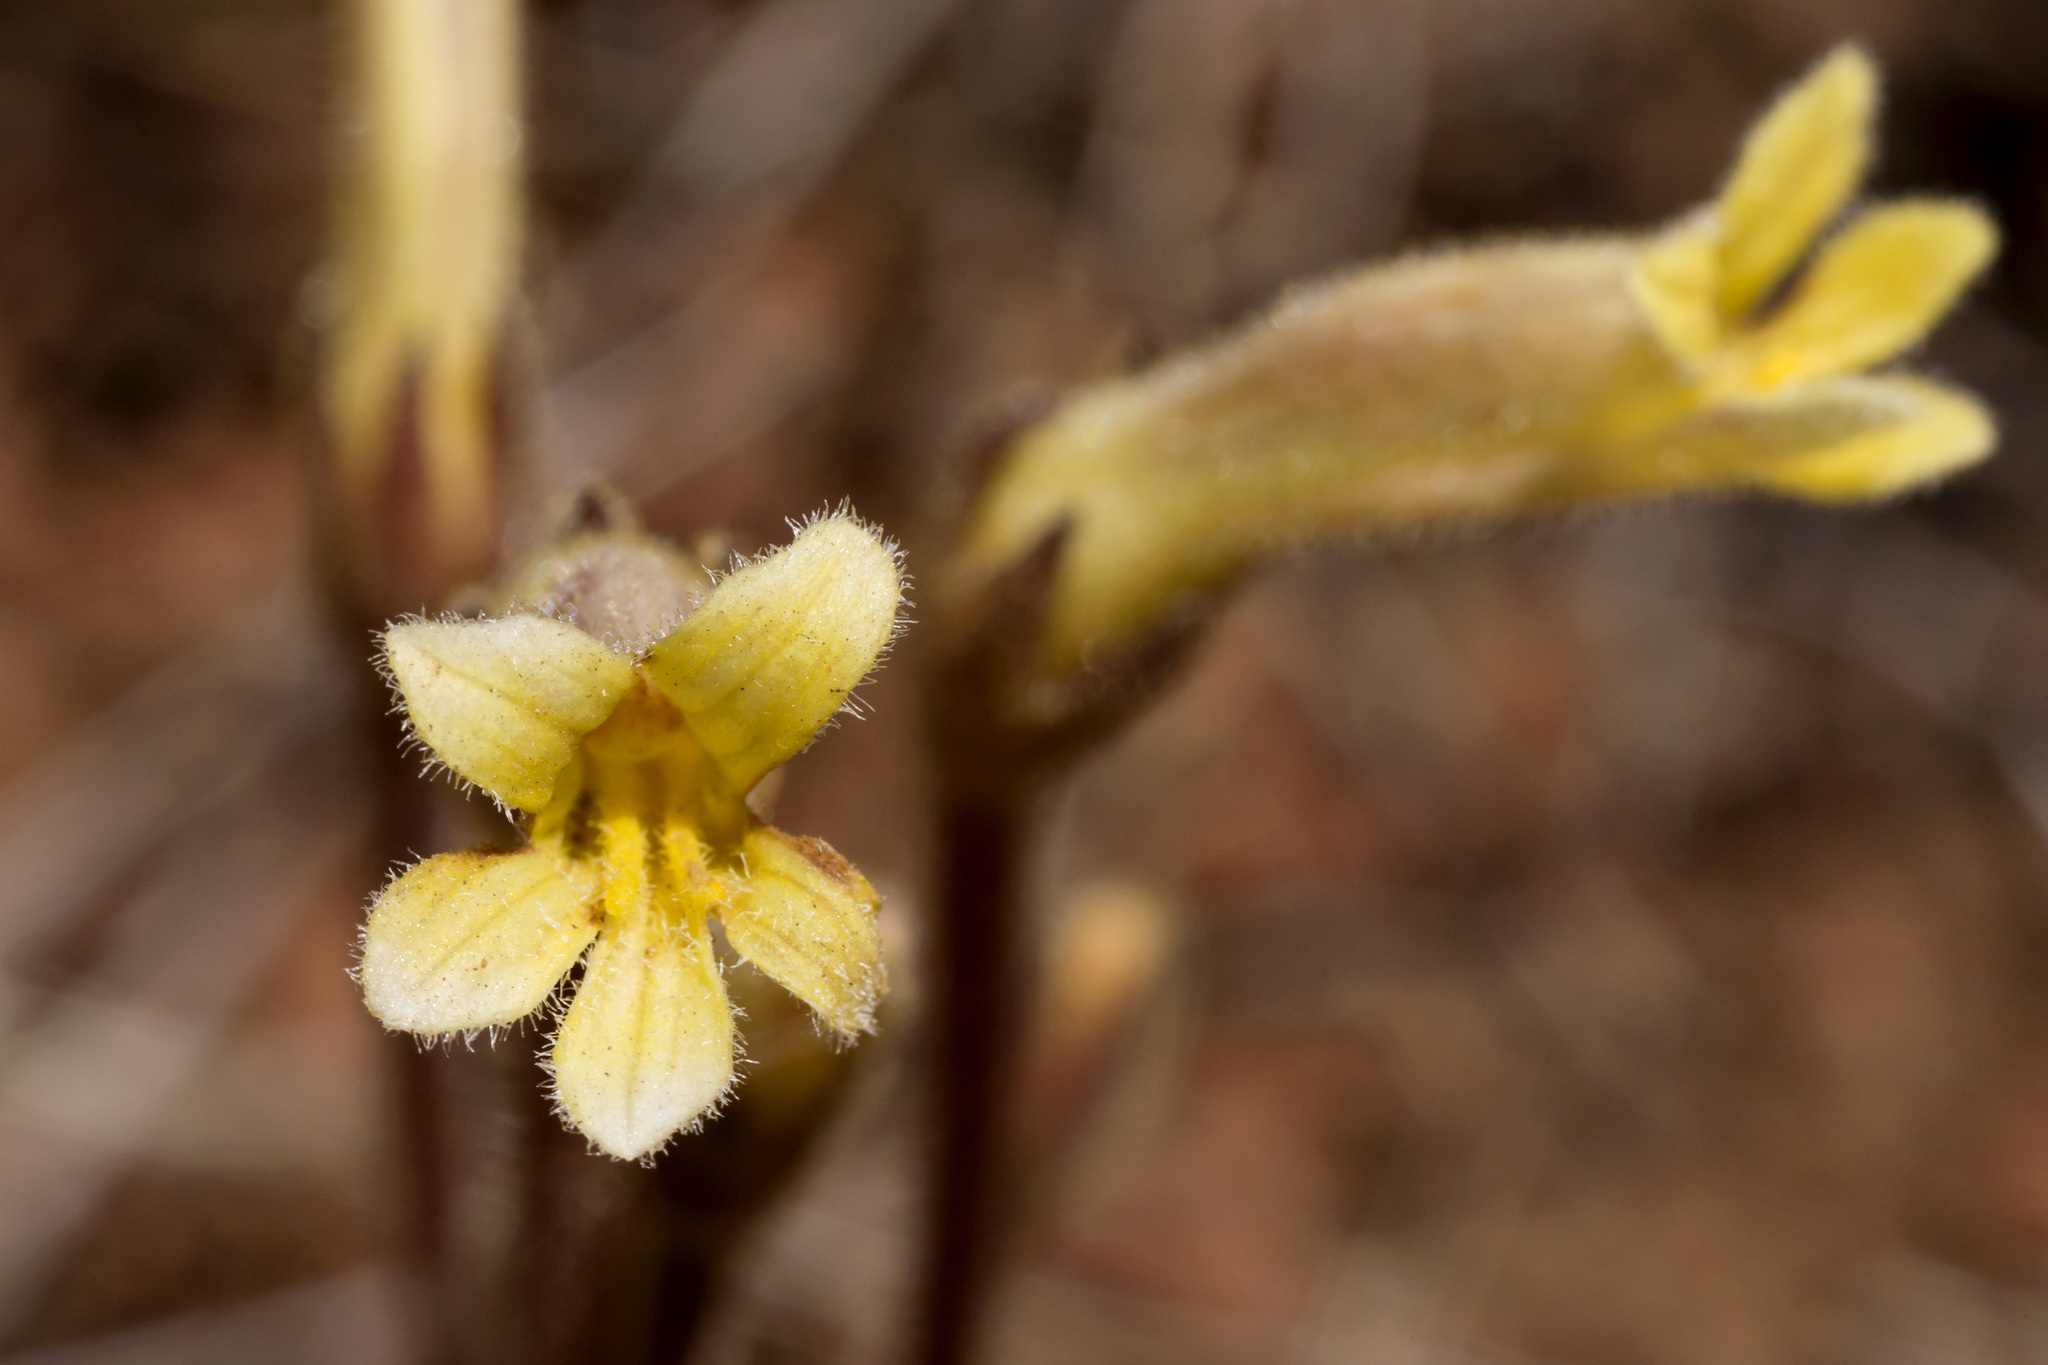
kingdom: Plantae
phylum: Tracheophyta
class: Magnoliopsida
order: Lamiales
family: Orobanchaceae
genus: Aphyllon
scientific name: Aphyllon fasciculatum
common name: Clustered broomrape
